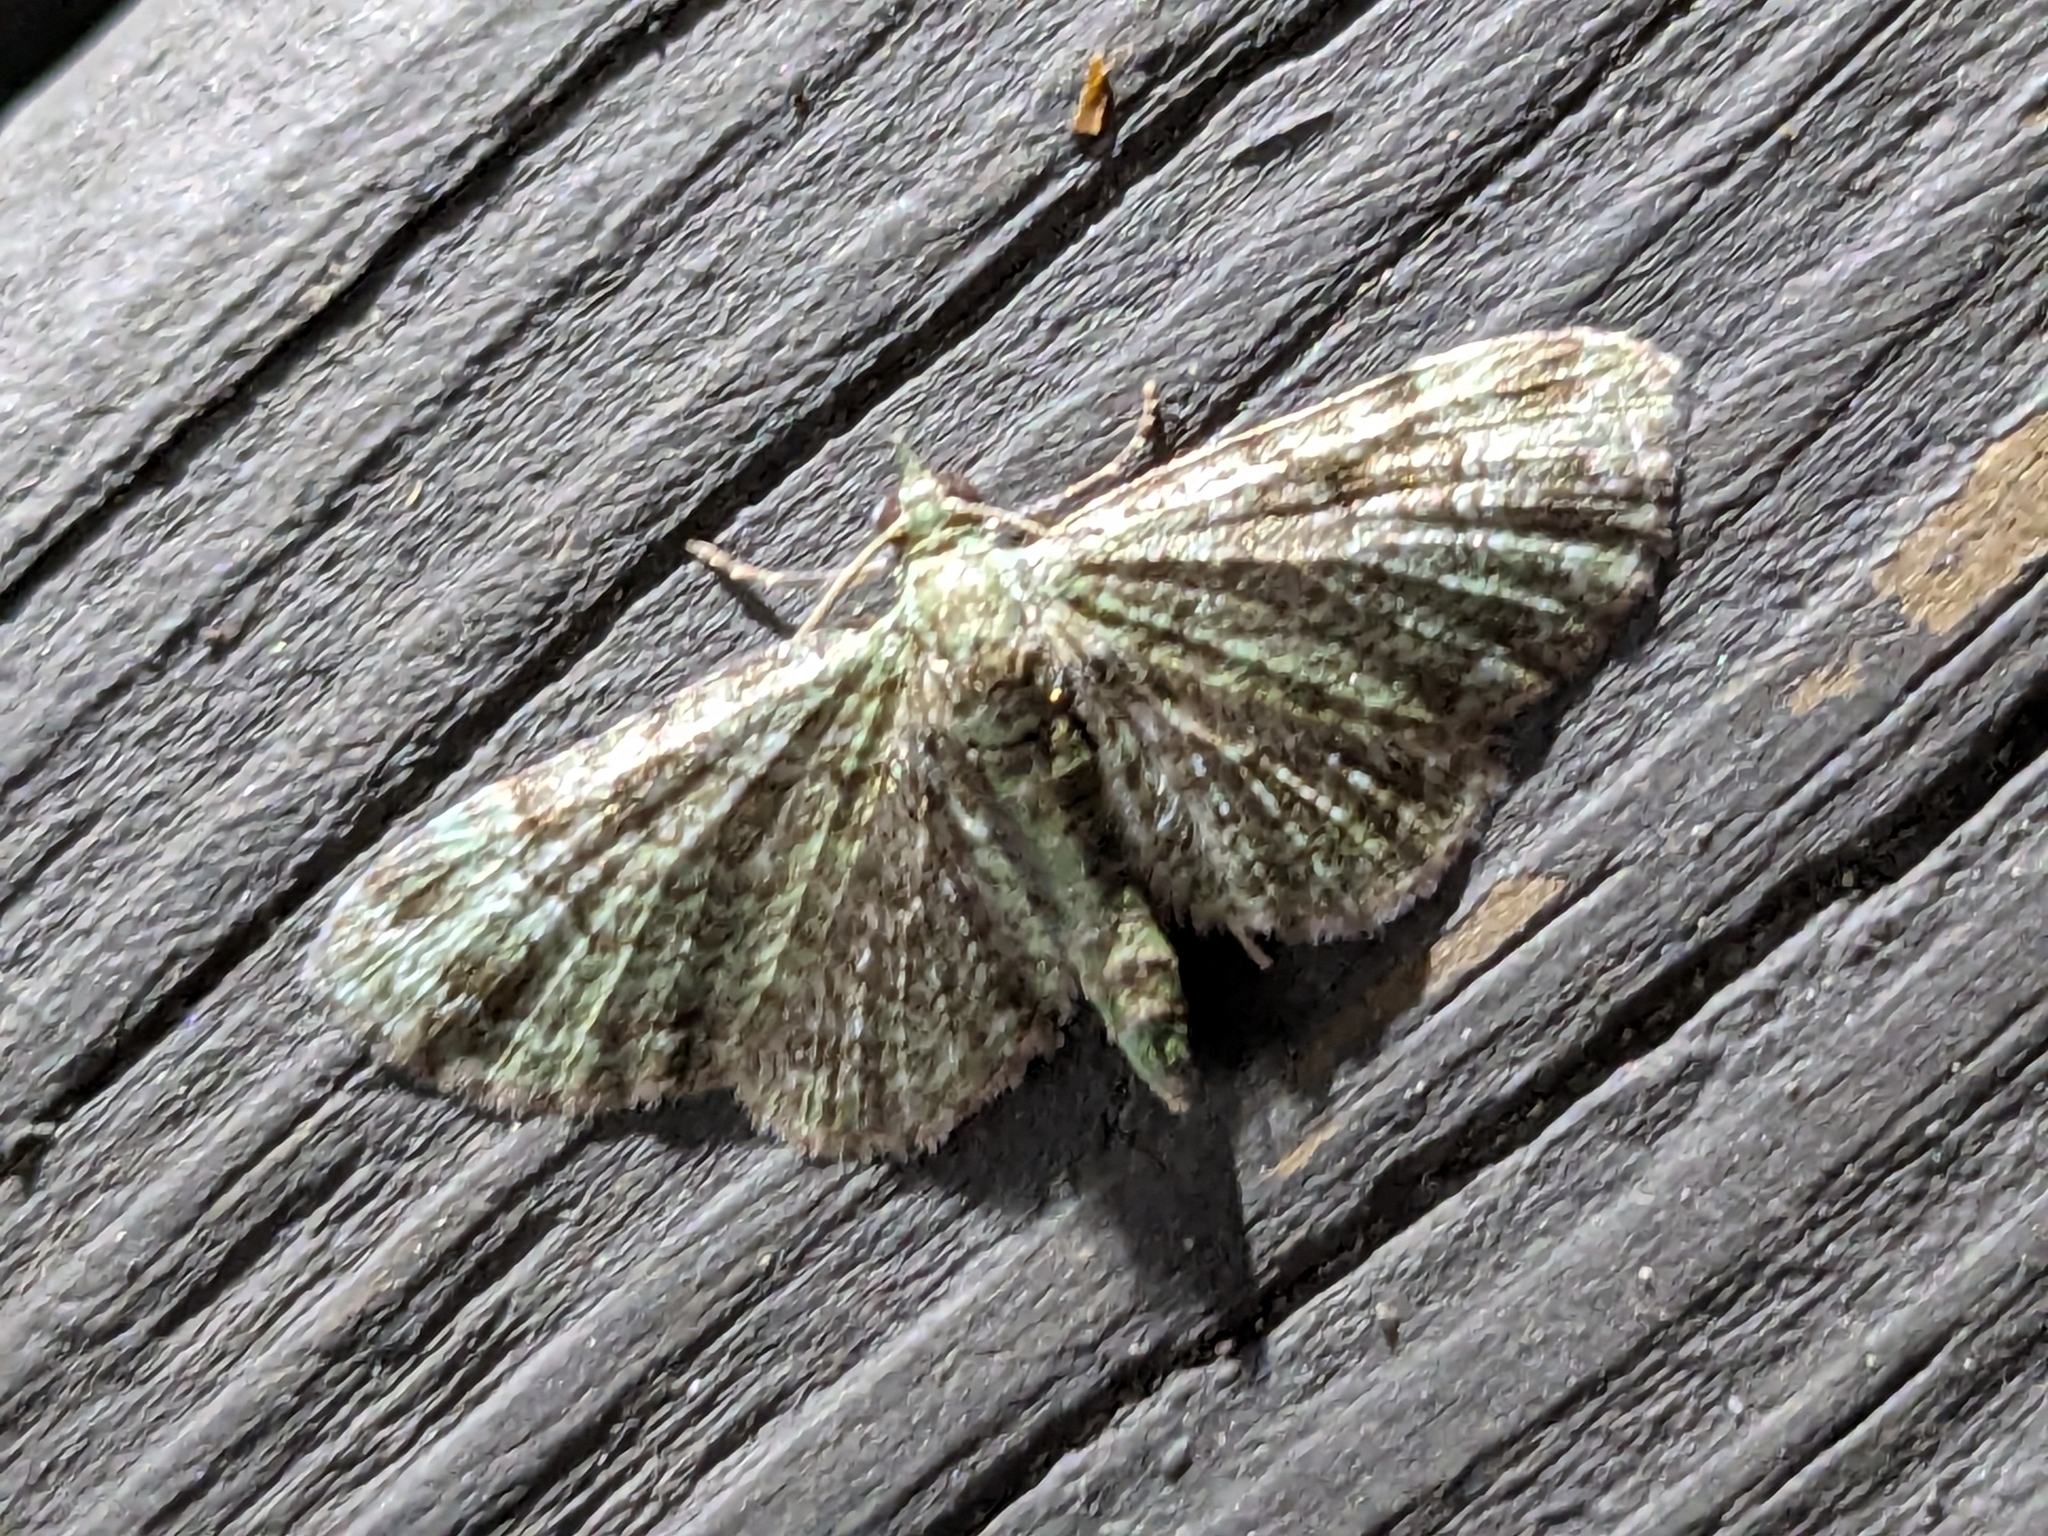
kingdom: Animalia
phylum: Arthropoda
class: Insecta
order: Lepidoptera
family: Geometridae
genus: Pasiphila
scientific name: Pasiphila rectangulata
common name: Green pug
